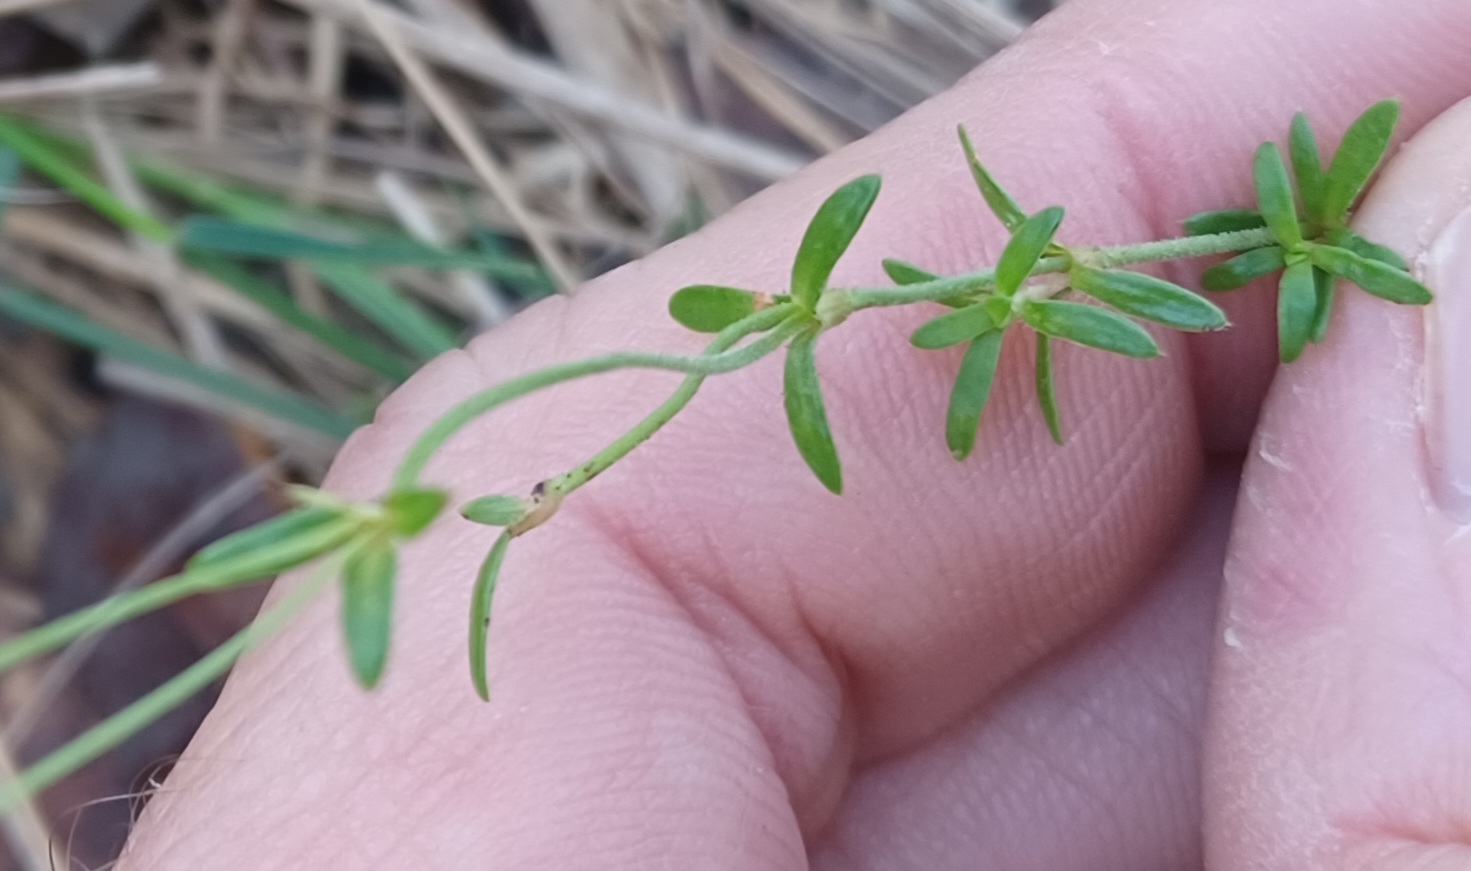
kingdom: Plantae
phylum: Tracheophyta
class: Magnoliopsida
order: Gentianales
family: Loganiaceae
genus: Mitrasacme
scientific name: Mitrasacme polymorpha
